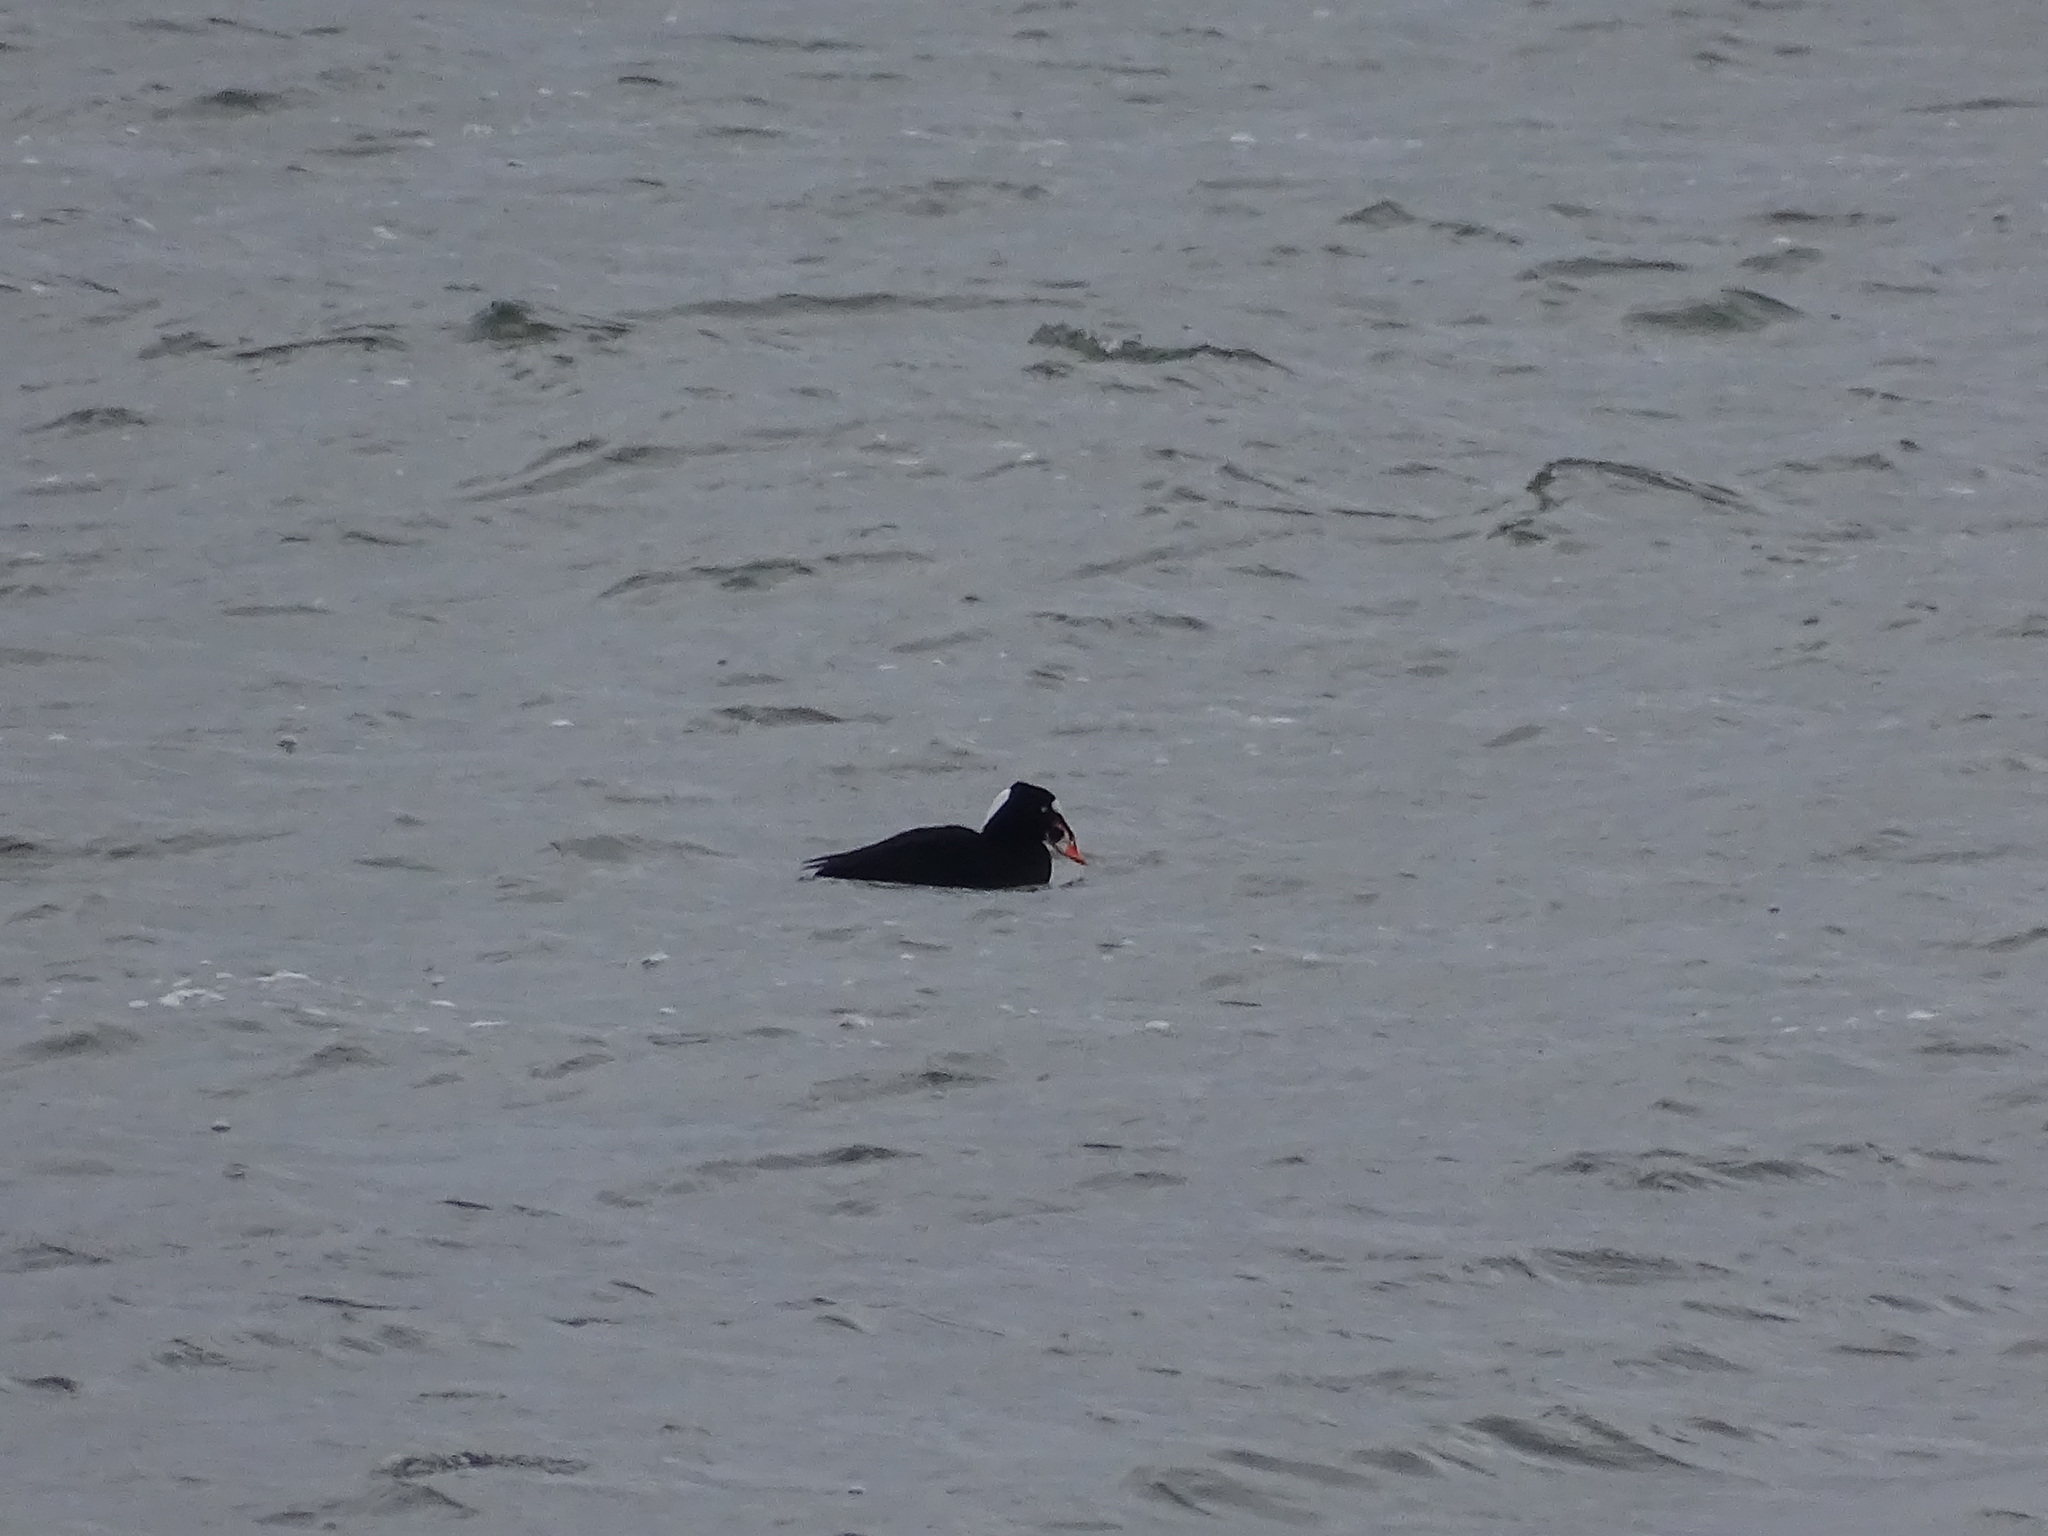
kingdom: Animalia
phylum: Chordata
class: Aves
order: Anseriformes
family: Anatidae
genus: Melanitta
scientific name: Melanitta perspicillata
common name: Surf scoter
